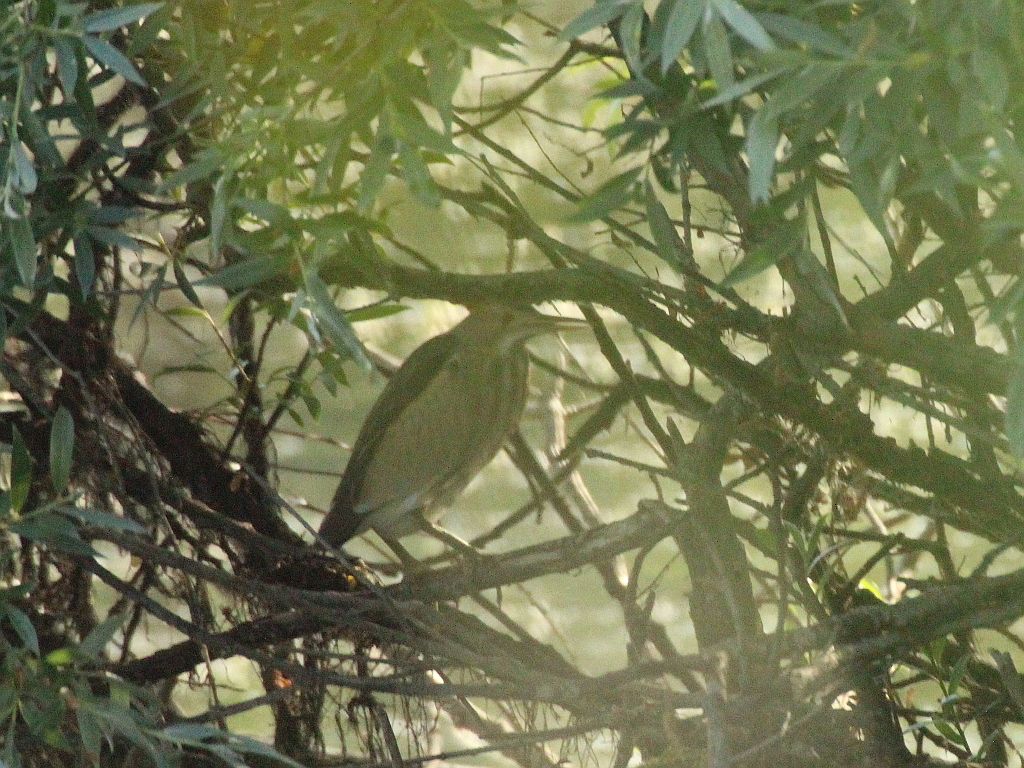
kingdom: Animalia
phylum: Chordata
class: Aves
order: Pelecaniformes
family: Ardeidae
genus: Ixobrychus
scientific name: Ixobrychus minutus
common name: Little bittern
